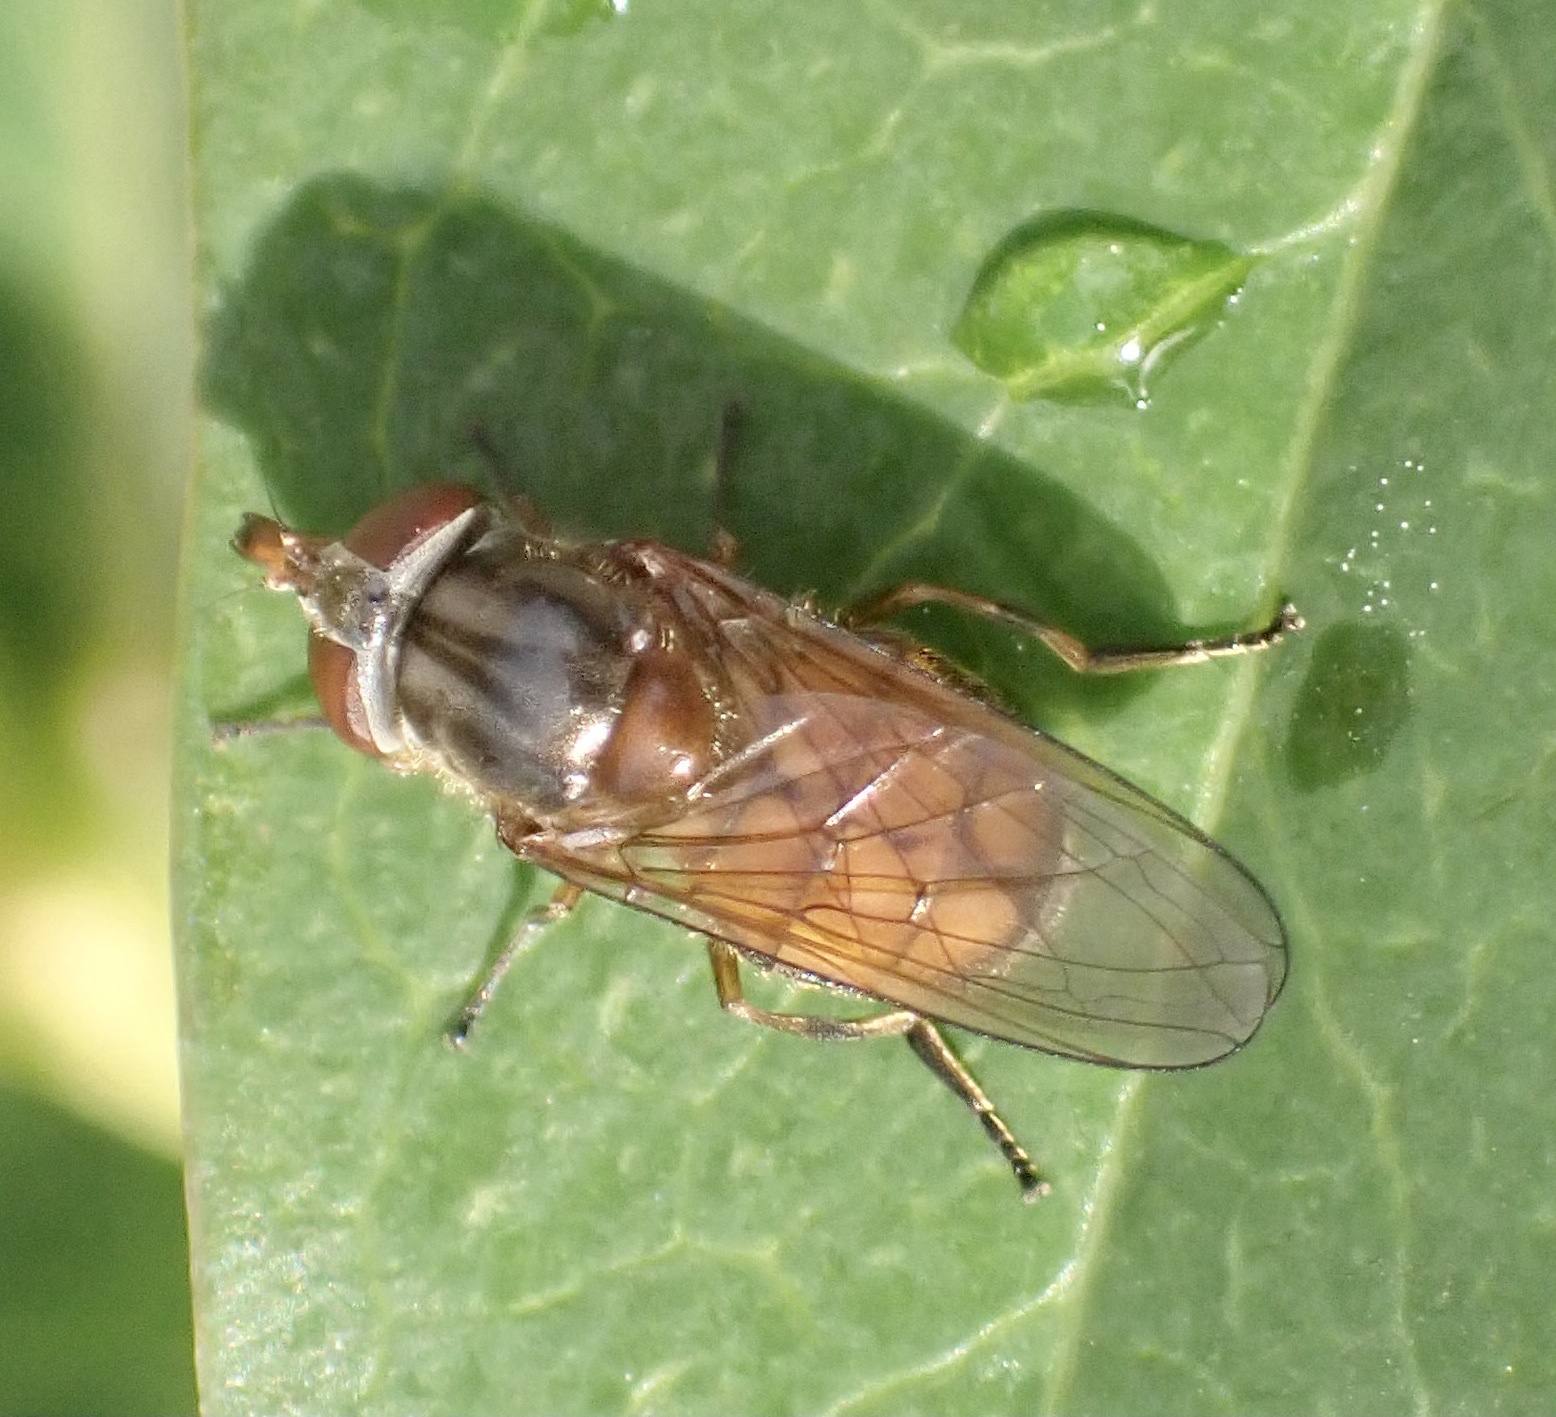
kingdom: Animalia
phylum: Arthropoda
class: Insecta
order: Diptera
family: Syrphidae
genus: Rhingia
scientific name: Rhingia campestris
